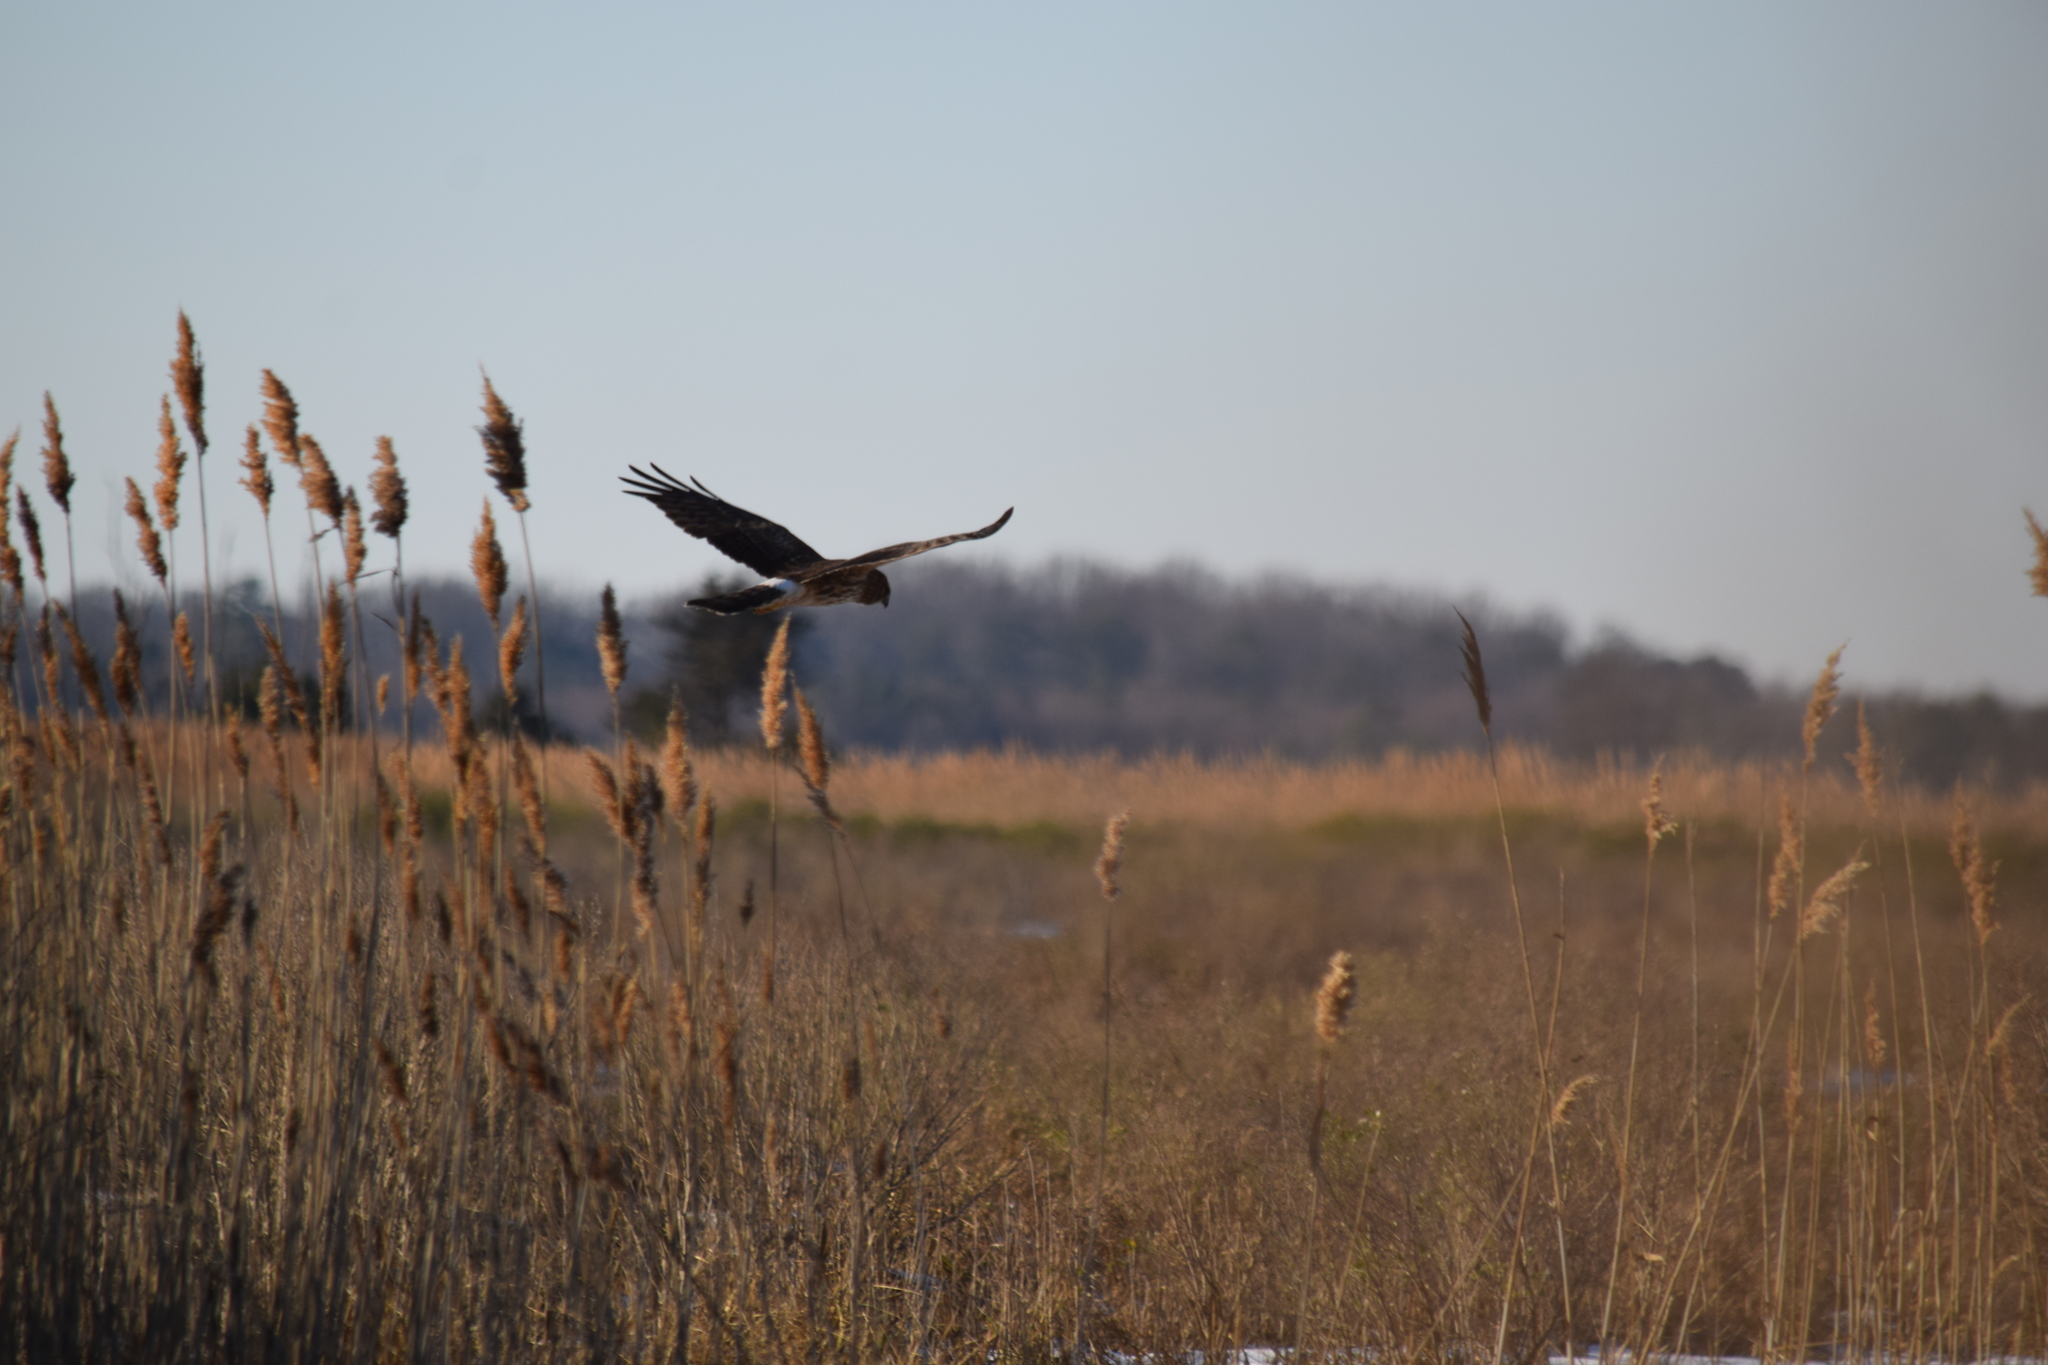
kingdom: Animalia
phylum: Chordata
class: Aves
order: Accipitriformes
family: Accipitridae
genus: Circus
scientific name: Circus cyaneus
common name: Hen harrier
